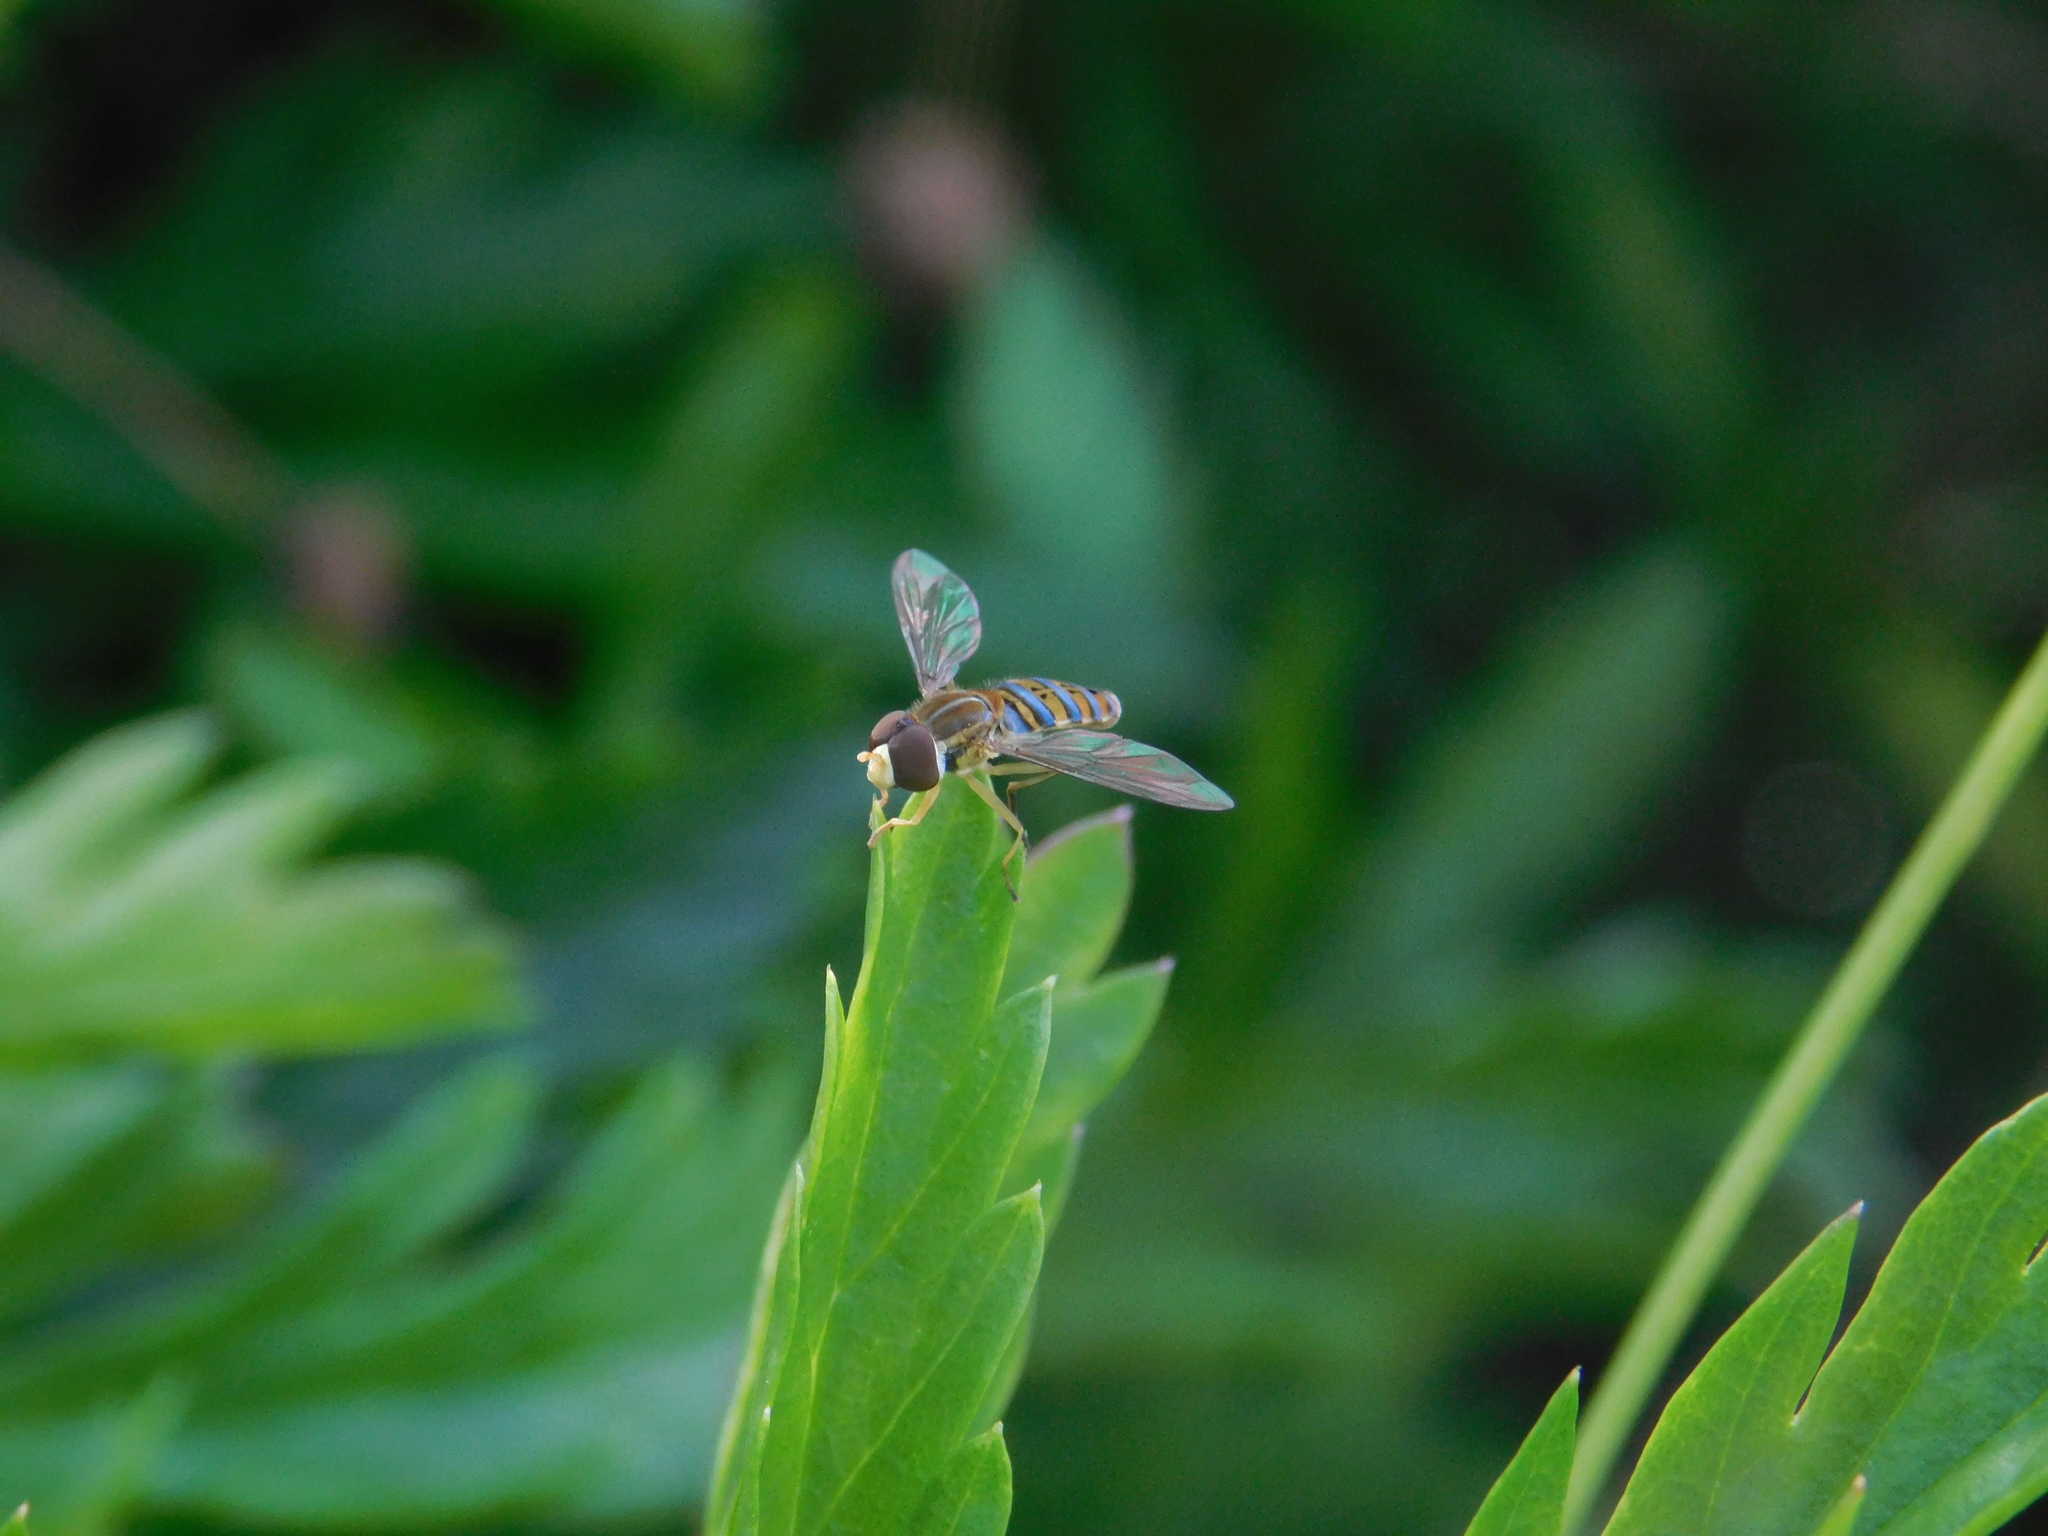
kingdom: Animalia
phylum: Arthropoda
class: Insecta
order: Diptera
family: Syrphidae
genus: Toxomerus
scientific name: Toxomerus
